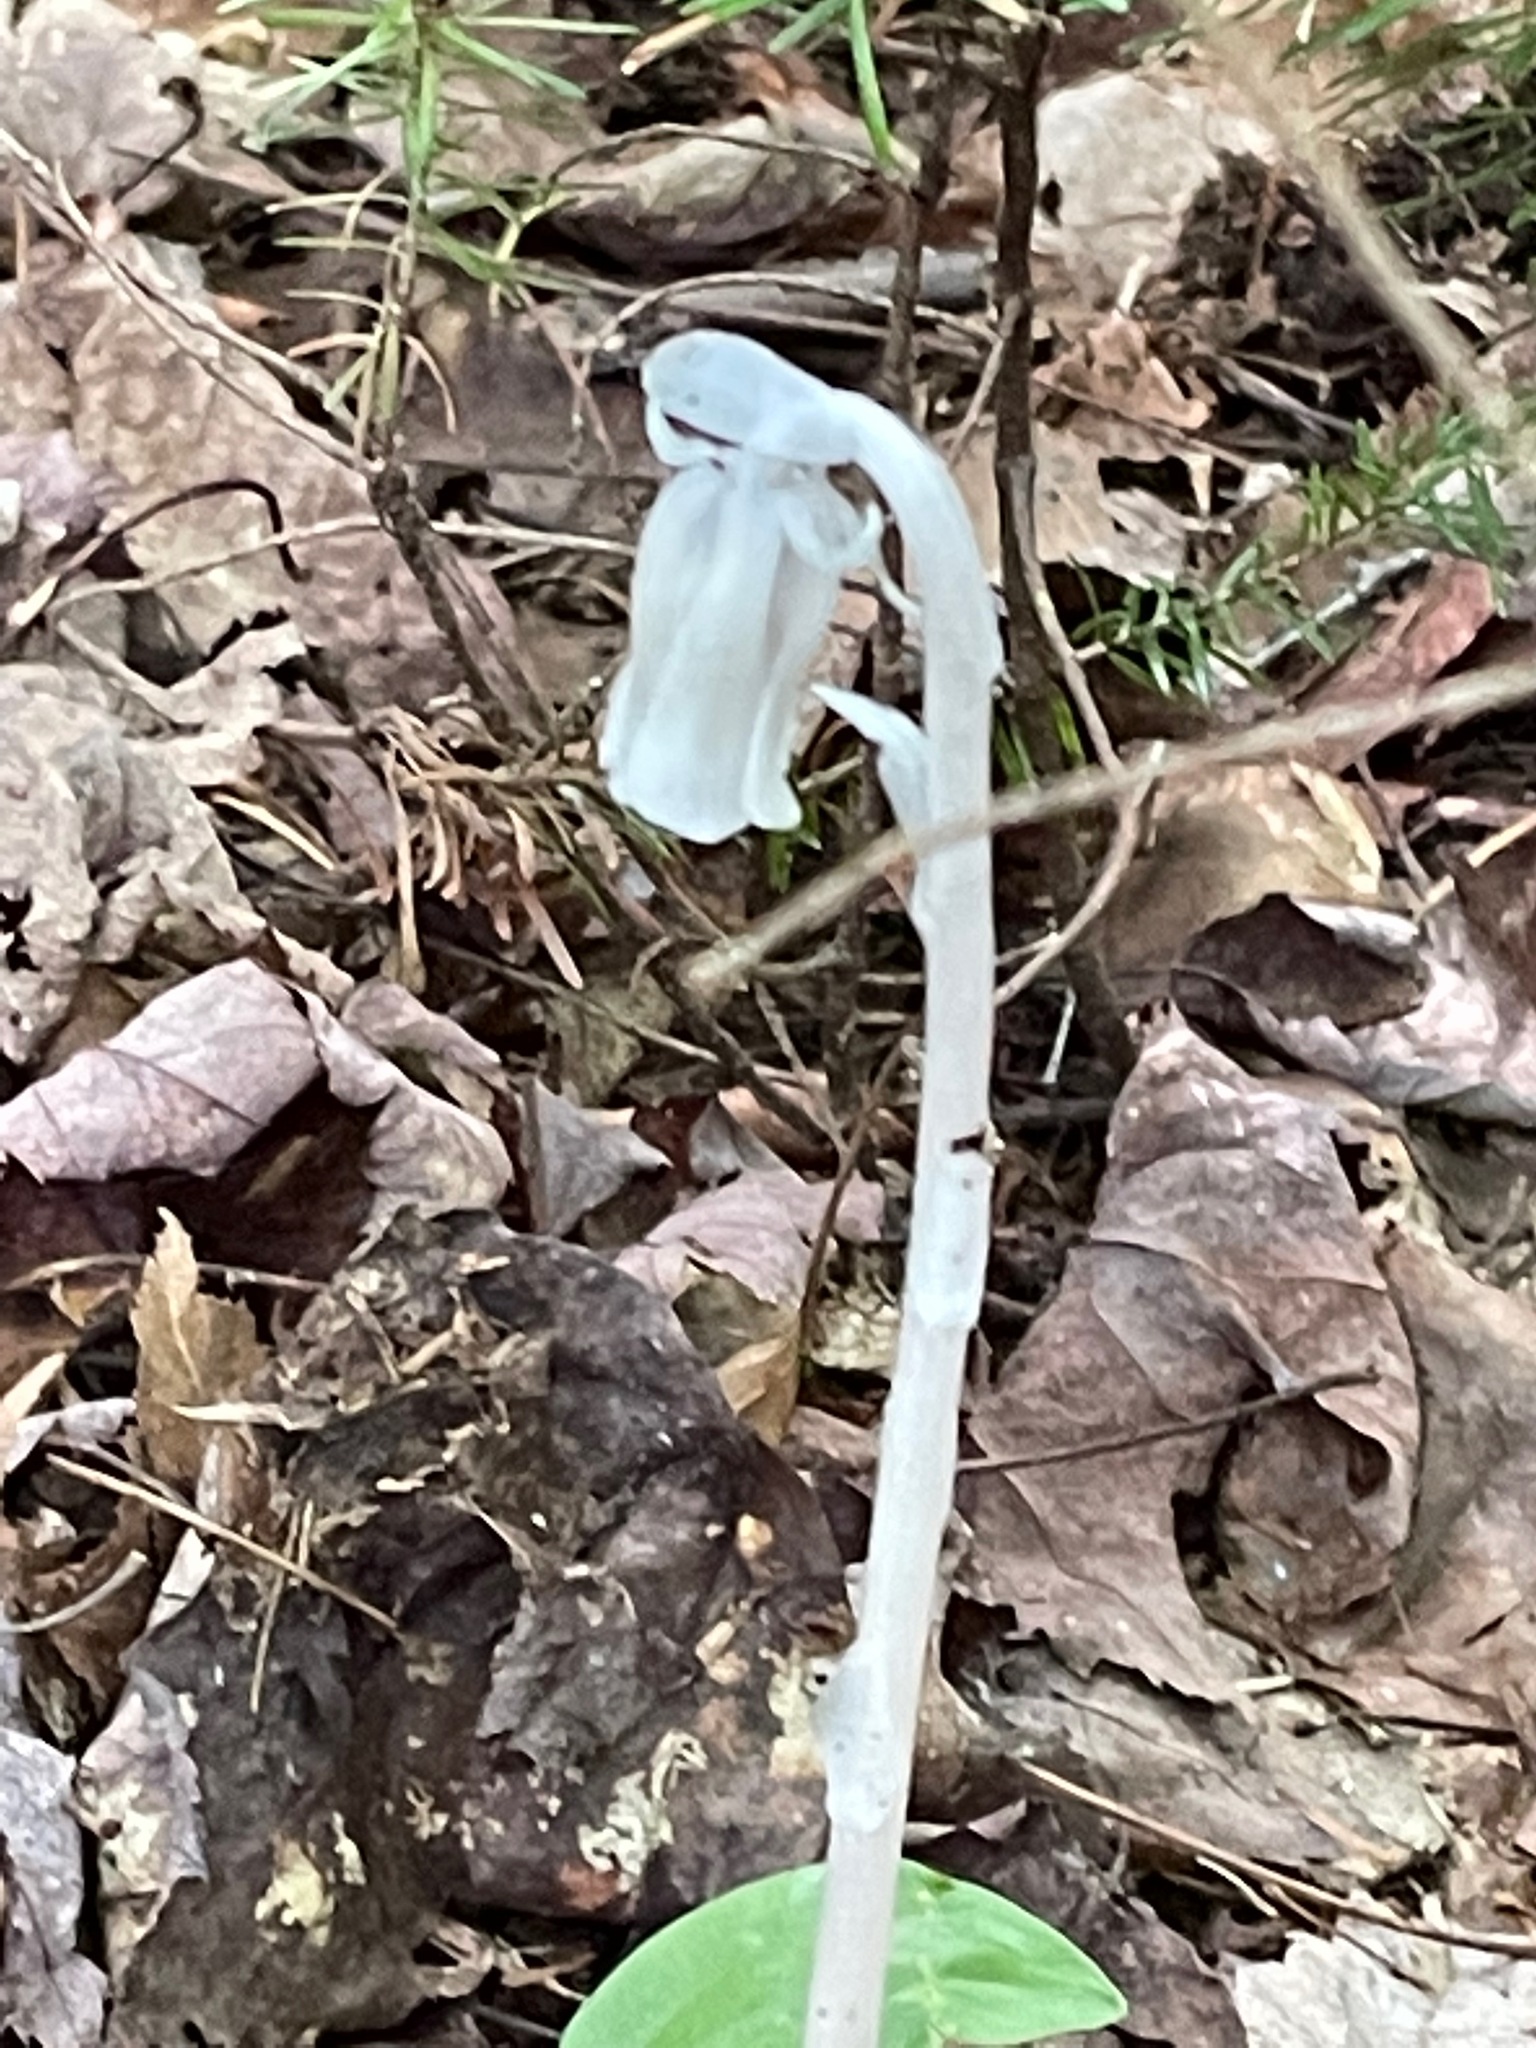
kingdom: Plantae
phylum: Tracheophyta
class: Magnoliopsida
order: Ericales
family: Ericaceae
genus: Monotropa
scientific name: Monotropa uniflora
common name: Convulsion root
